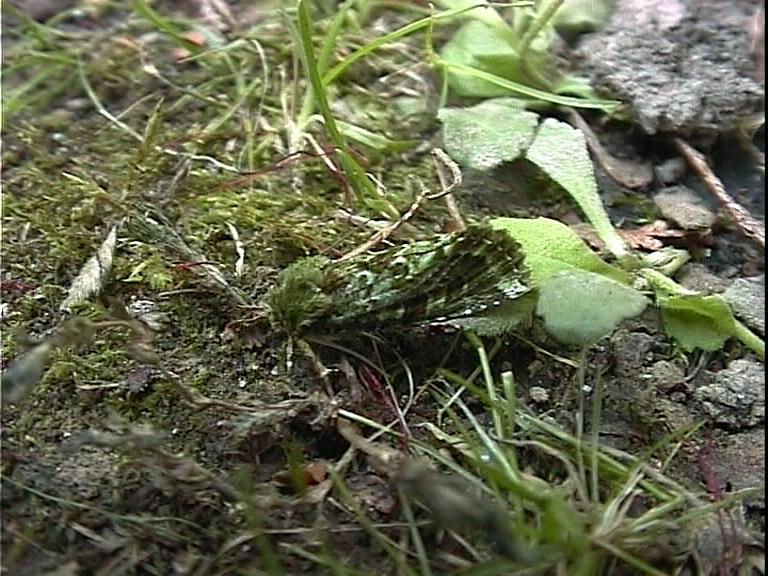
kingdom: Animalia
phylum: Arthropoda
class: Insecta
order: Lepidoptera
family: Noctuidae
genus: Feredayia
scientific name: Feredayia grammosa
